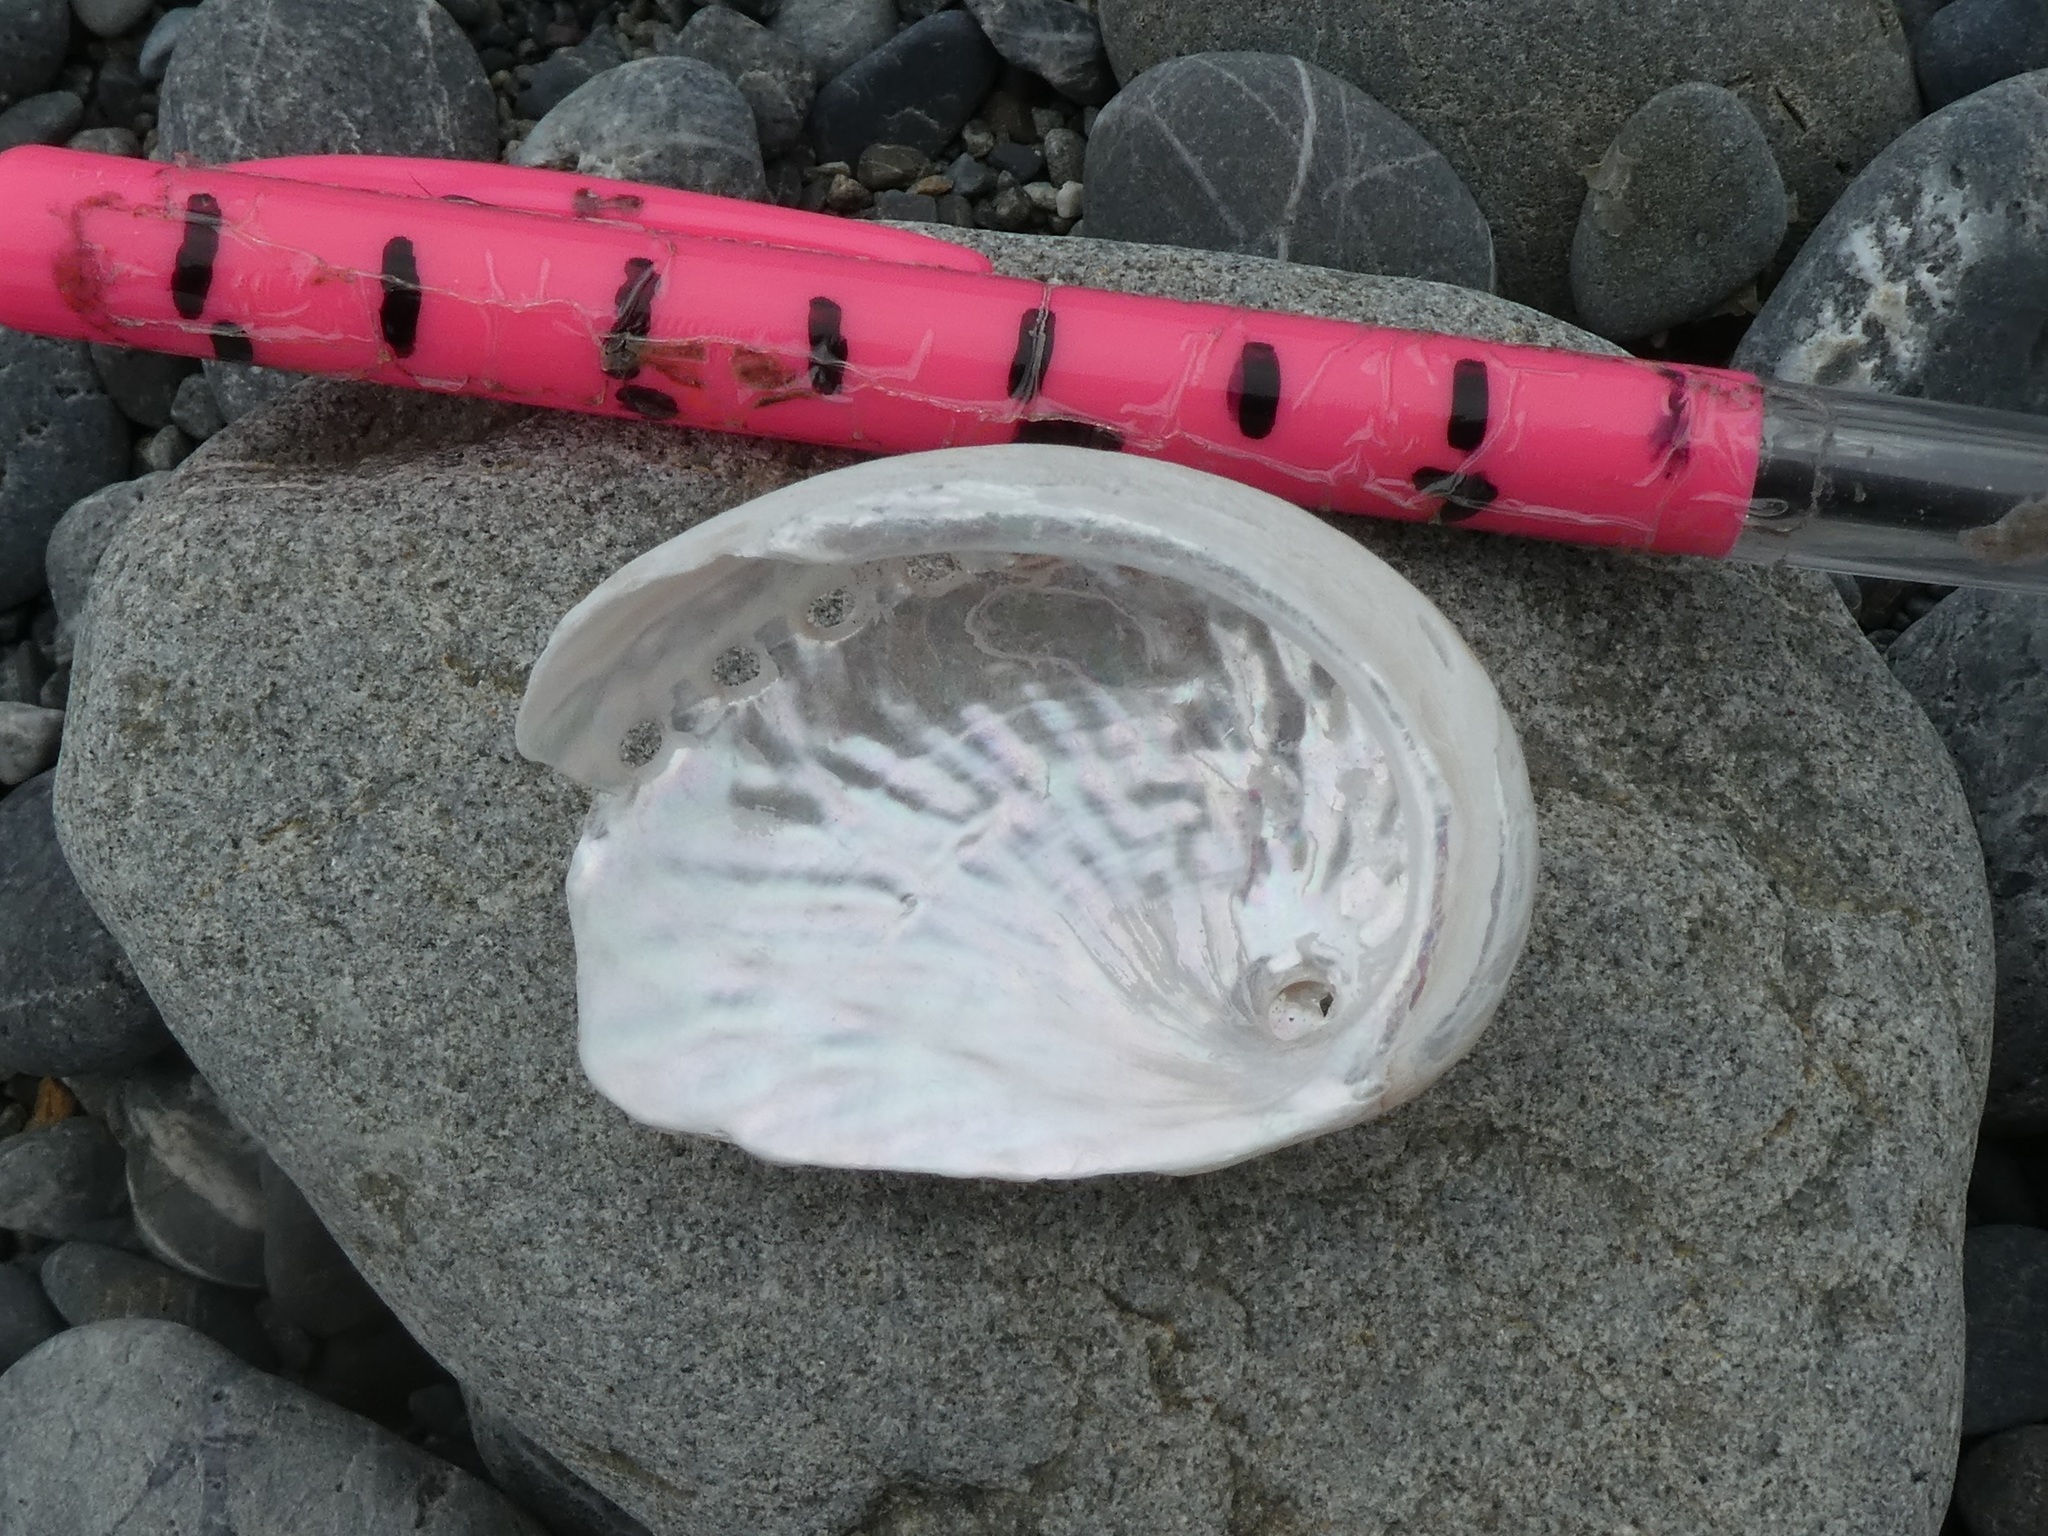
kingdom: Animalia
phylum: Mollusca
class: Gastropoda
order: Lepetellida
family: Haliotidae
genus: Haliotis
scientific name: Haliotis australis
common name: Silver abalone
